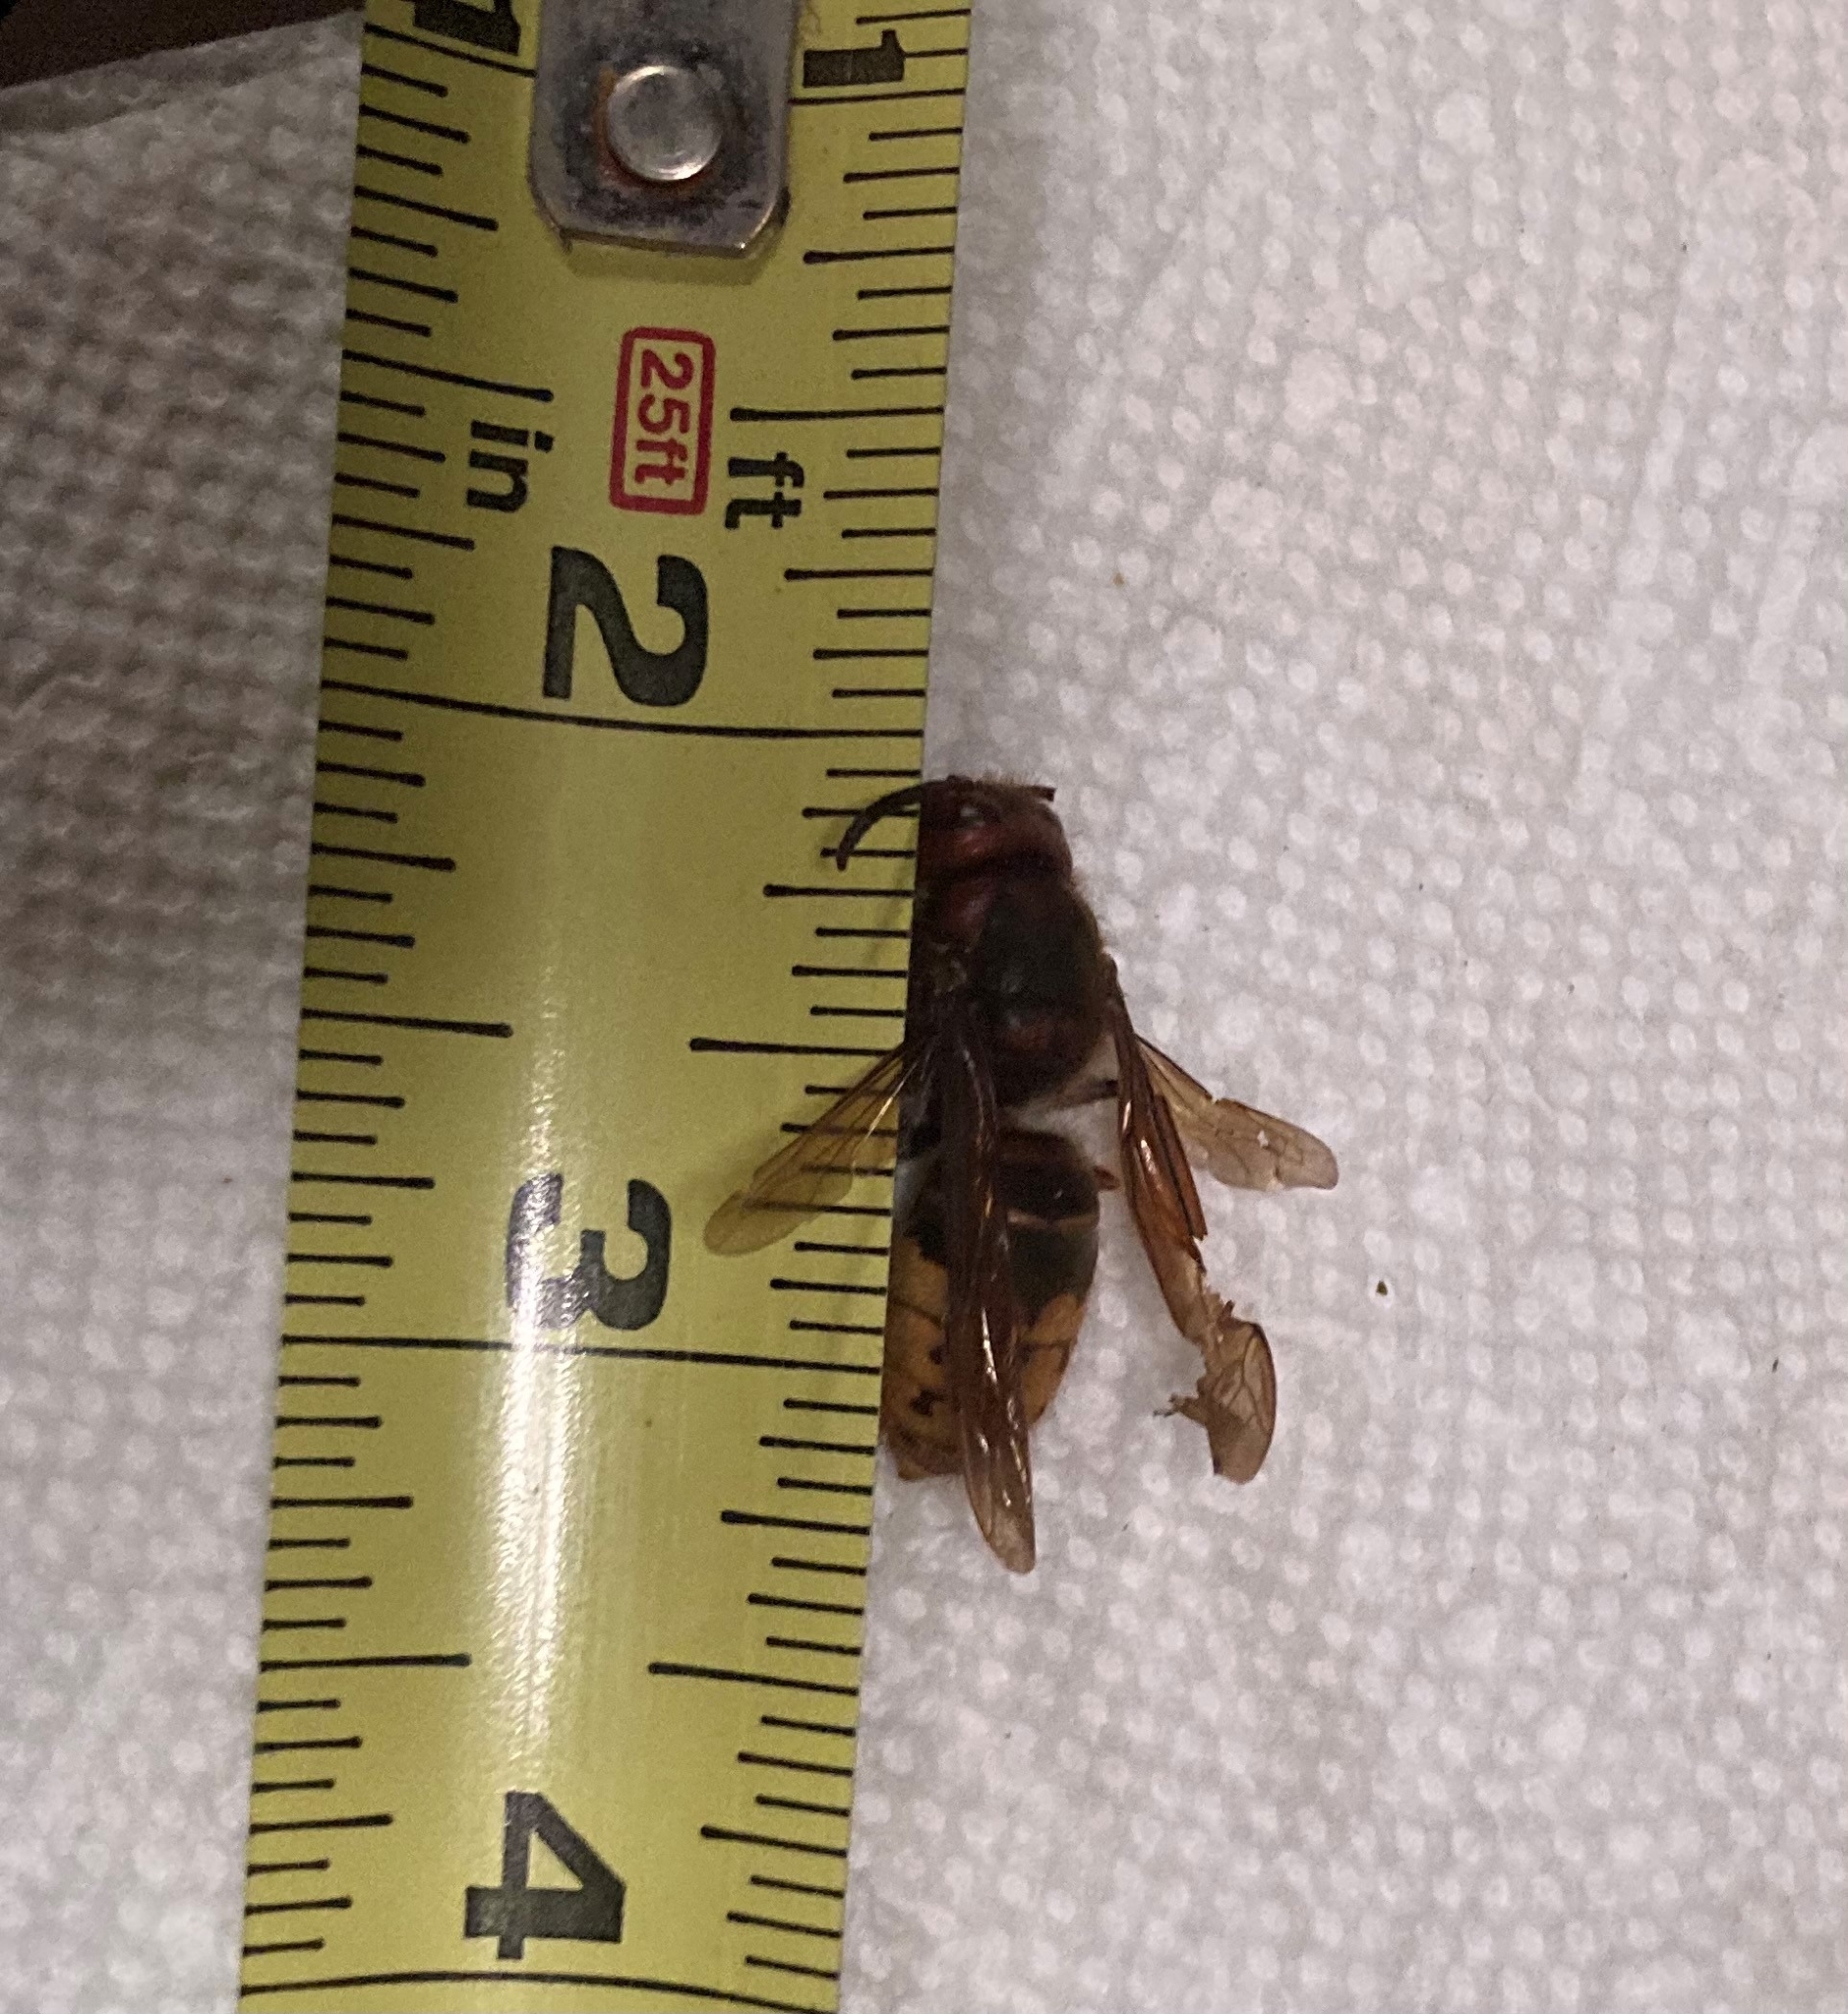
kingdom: Animalia
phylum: Arthropoda
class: Insecta
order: Hymenoptera
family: Vespidae
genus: Vespa
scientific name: Vespa crabro
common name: Hornet
